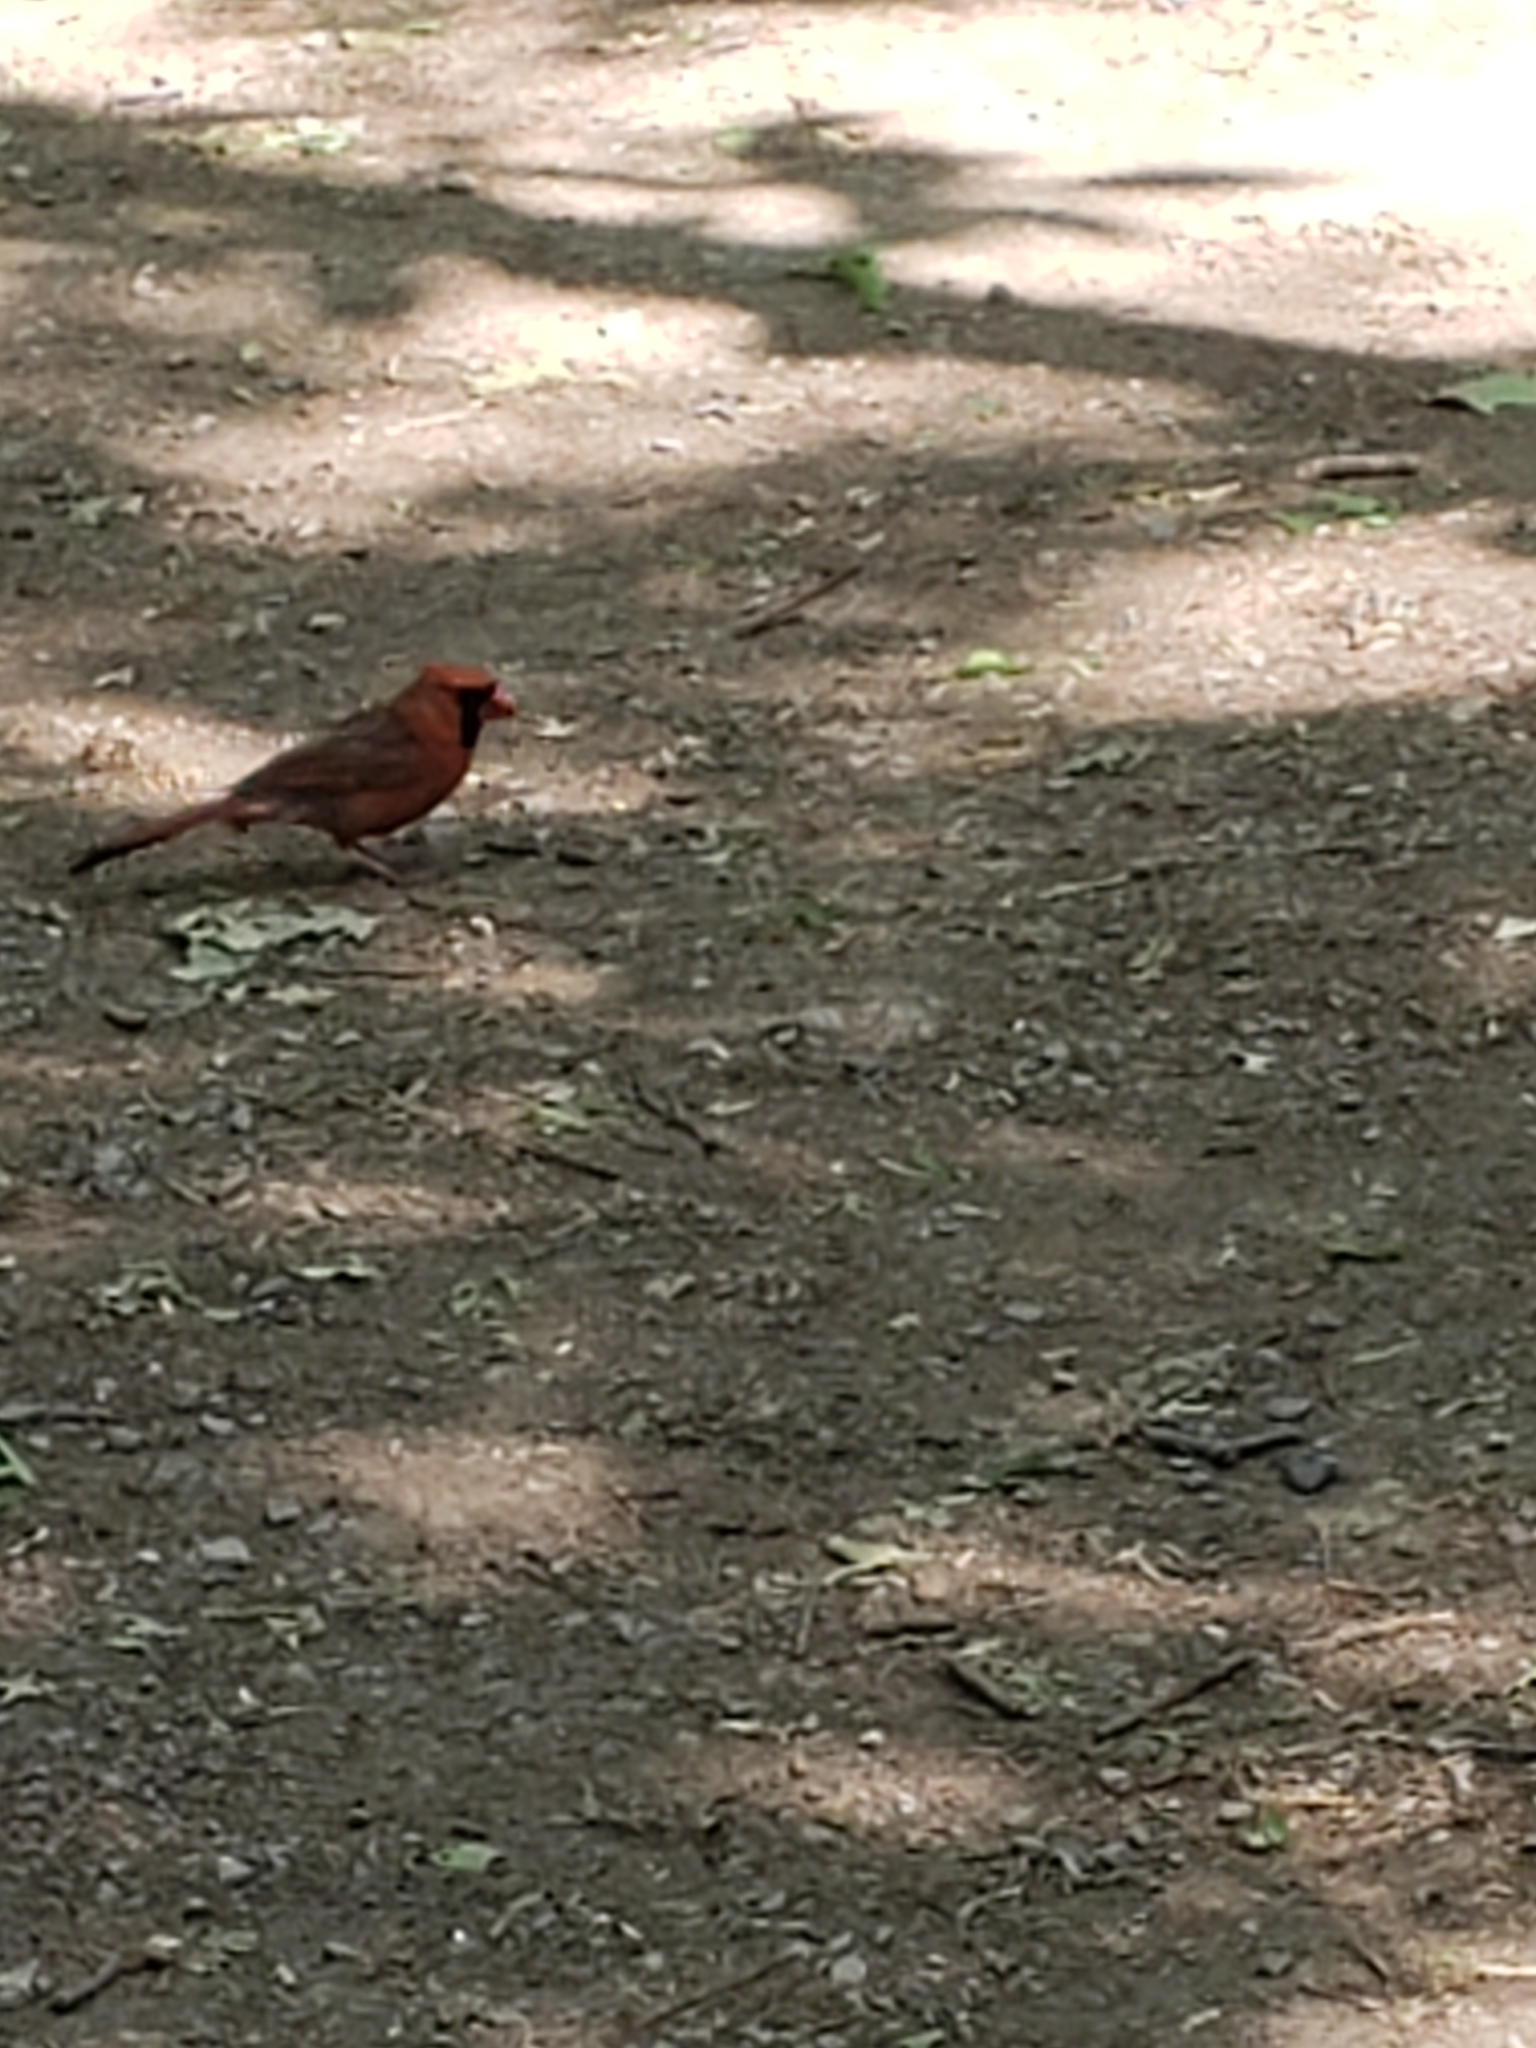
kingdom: Animalia
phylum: Chordata
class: Aves
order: Passeriformes
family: Cardinalidae
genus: Cardinalis
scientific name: Cardinalis cardinalis
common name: Northern cardinal
